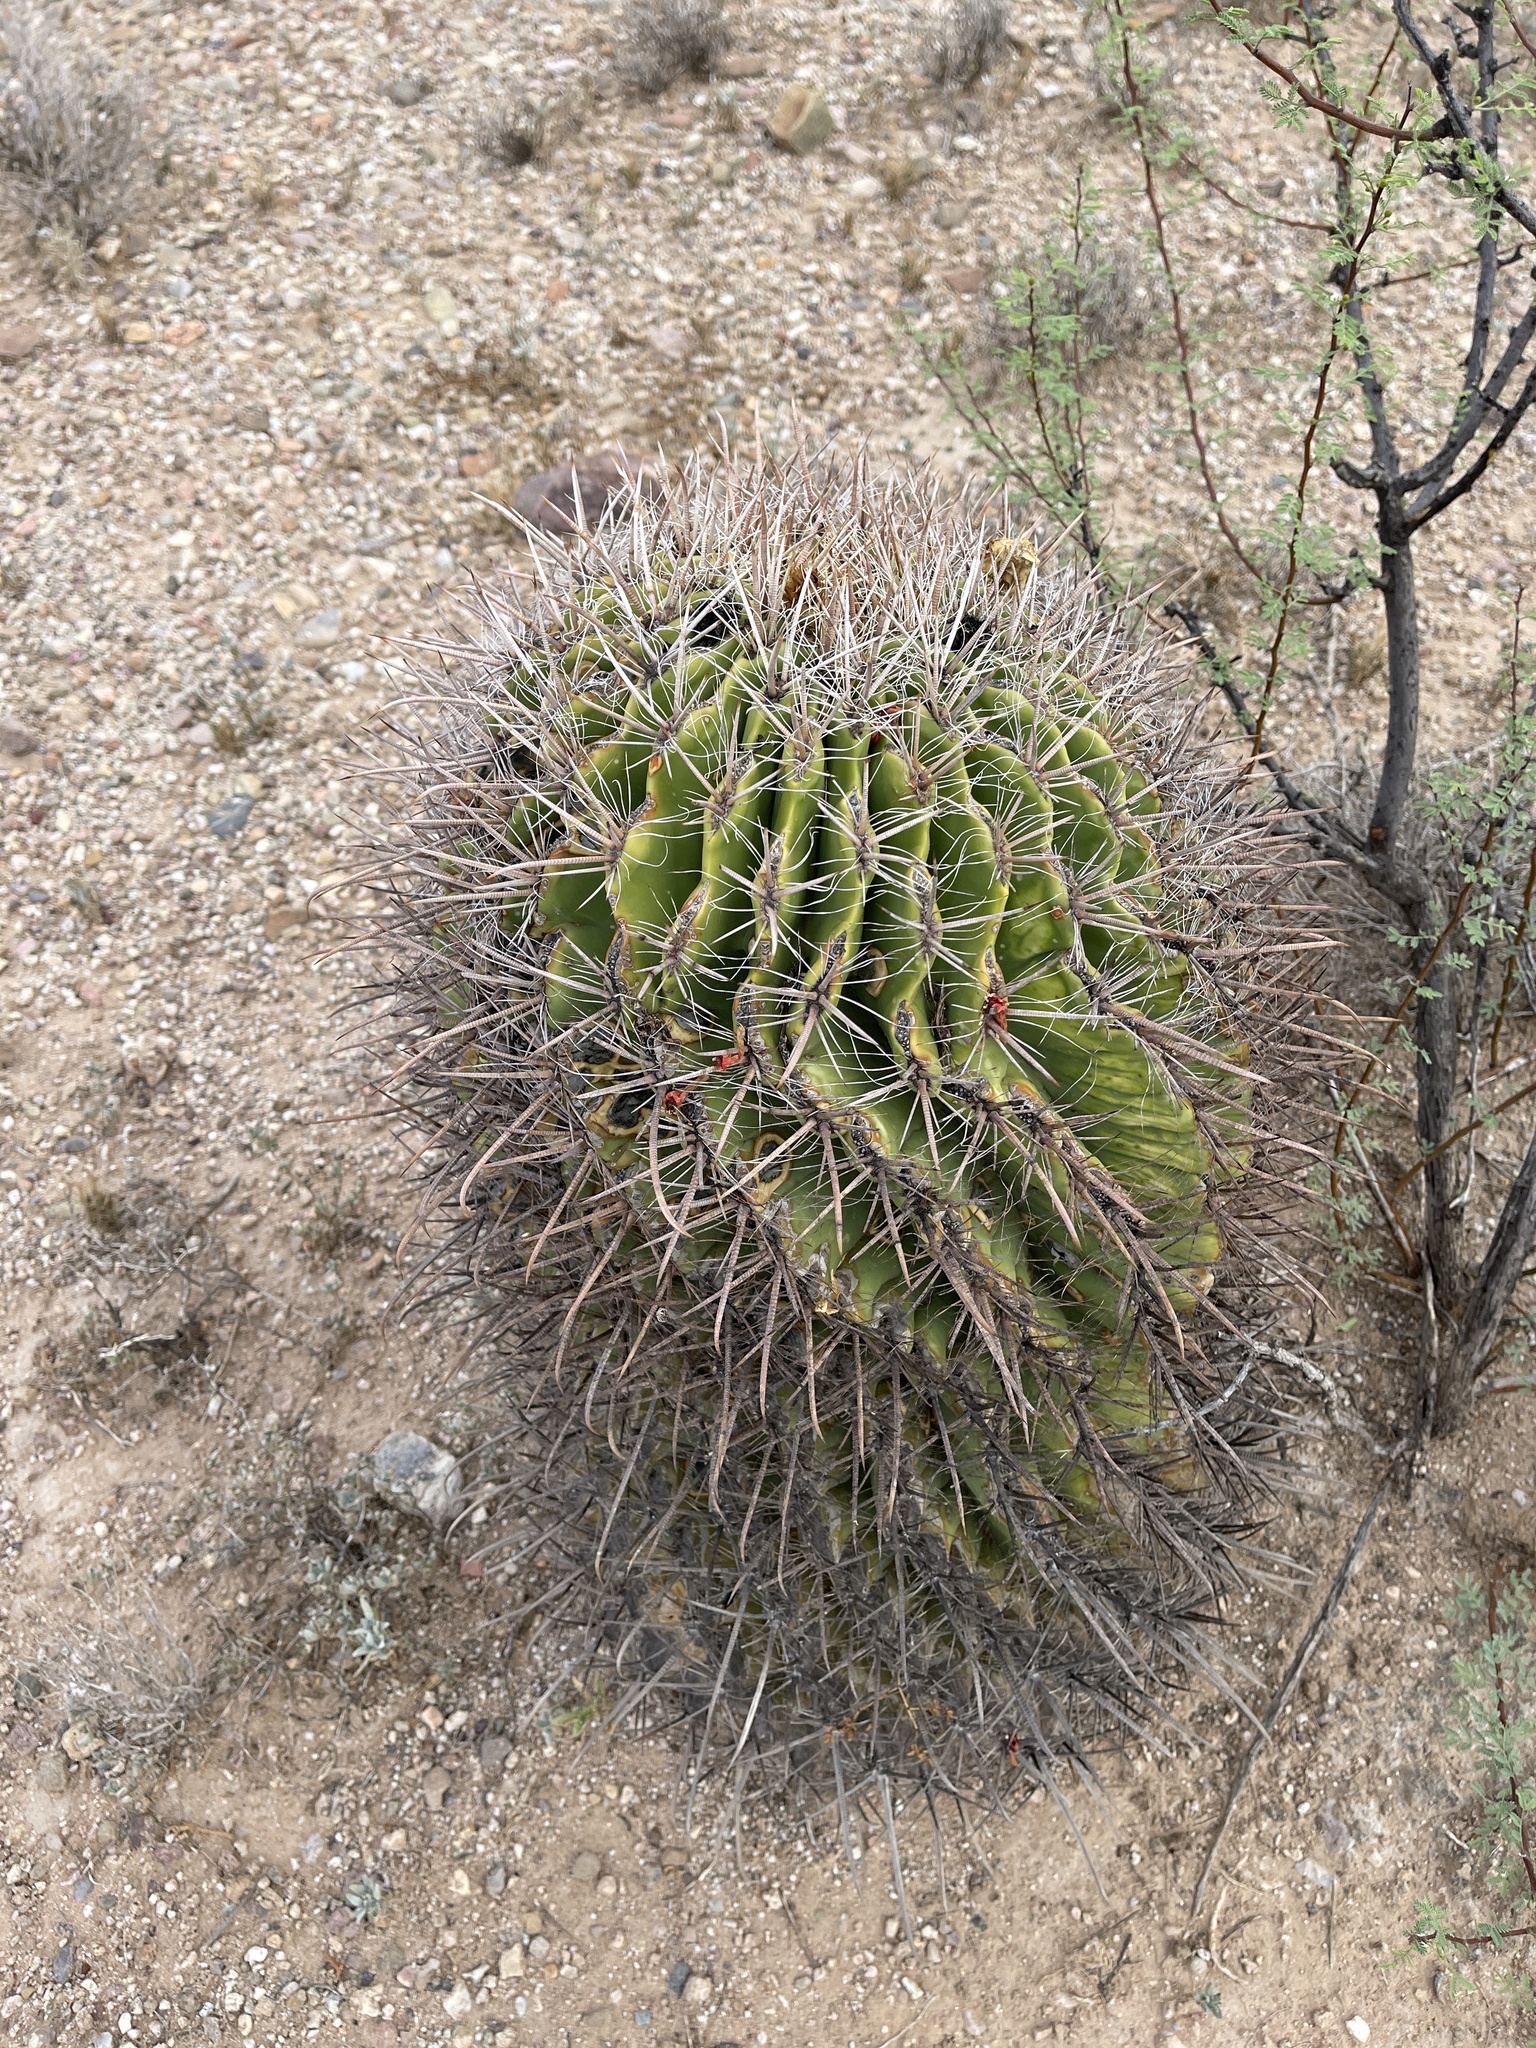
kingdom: Plantae
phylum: Tracheophyta
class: Magnoliopsida
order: Caryophyllales
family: Cactaceae
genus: Ferocactus
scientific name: Ferocactus wislizeni
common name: Candy barrel cactus
